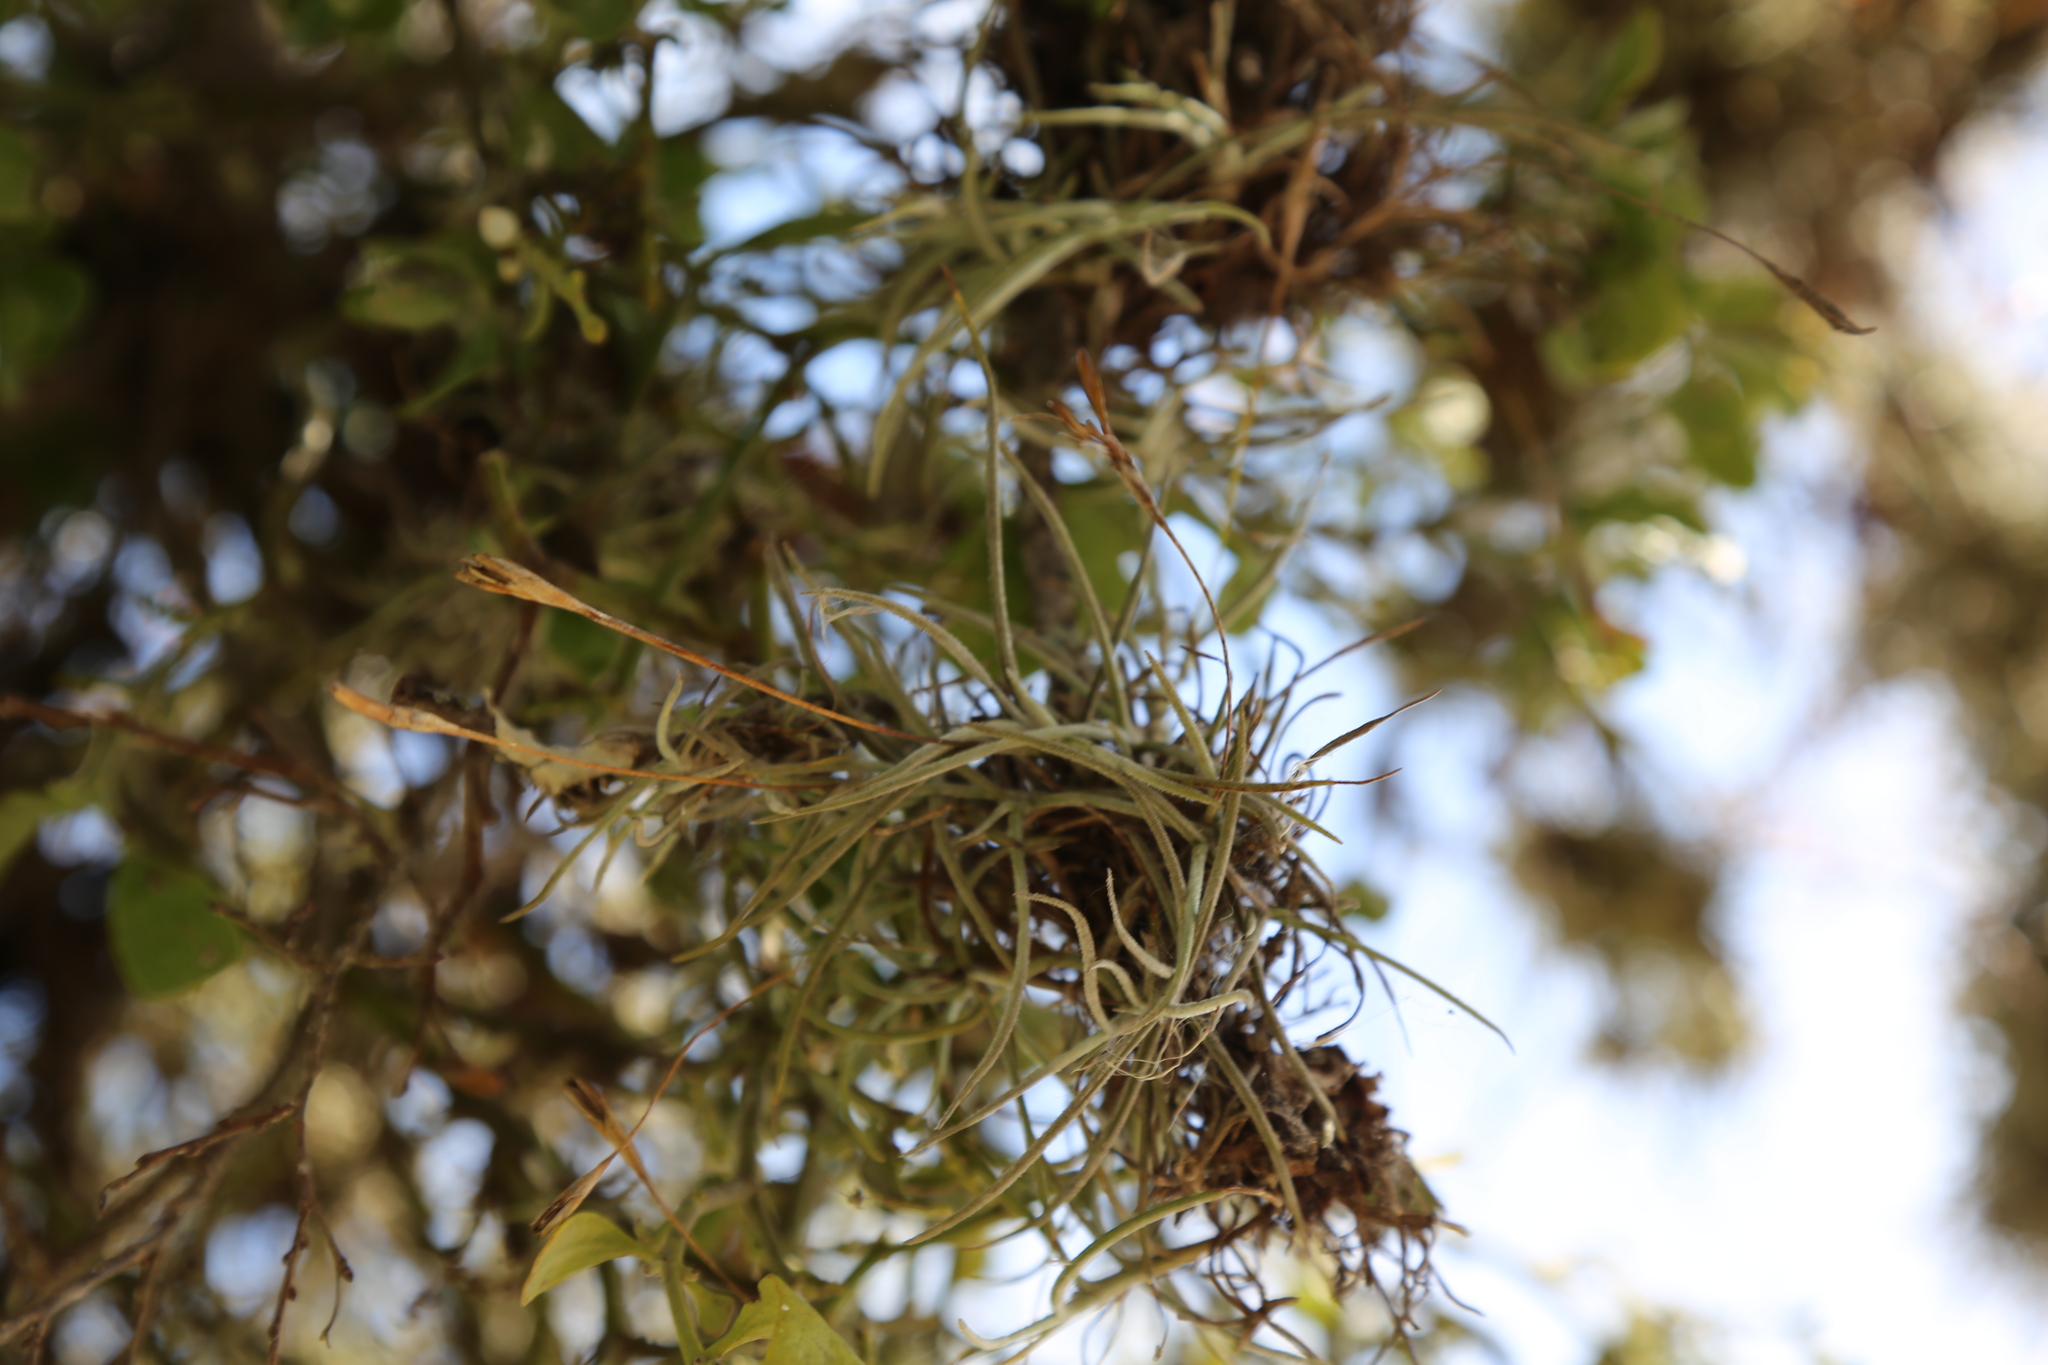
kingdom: Plantae
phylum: Tracheophyta
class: Liliopsida
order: Poales
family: Bromeliaceae
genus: Tillandsia
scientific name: Tillandsia recurvata
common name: Small ballmoss
